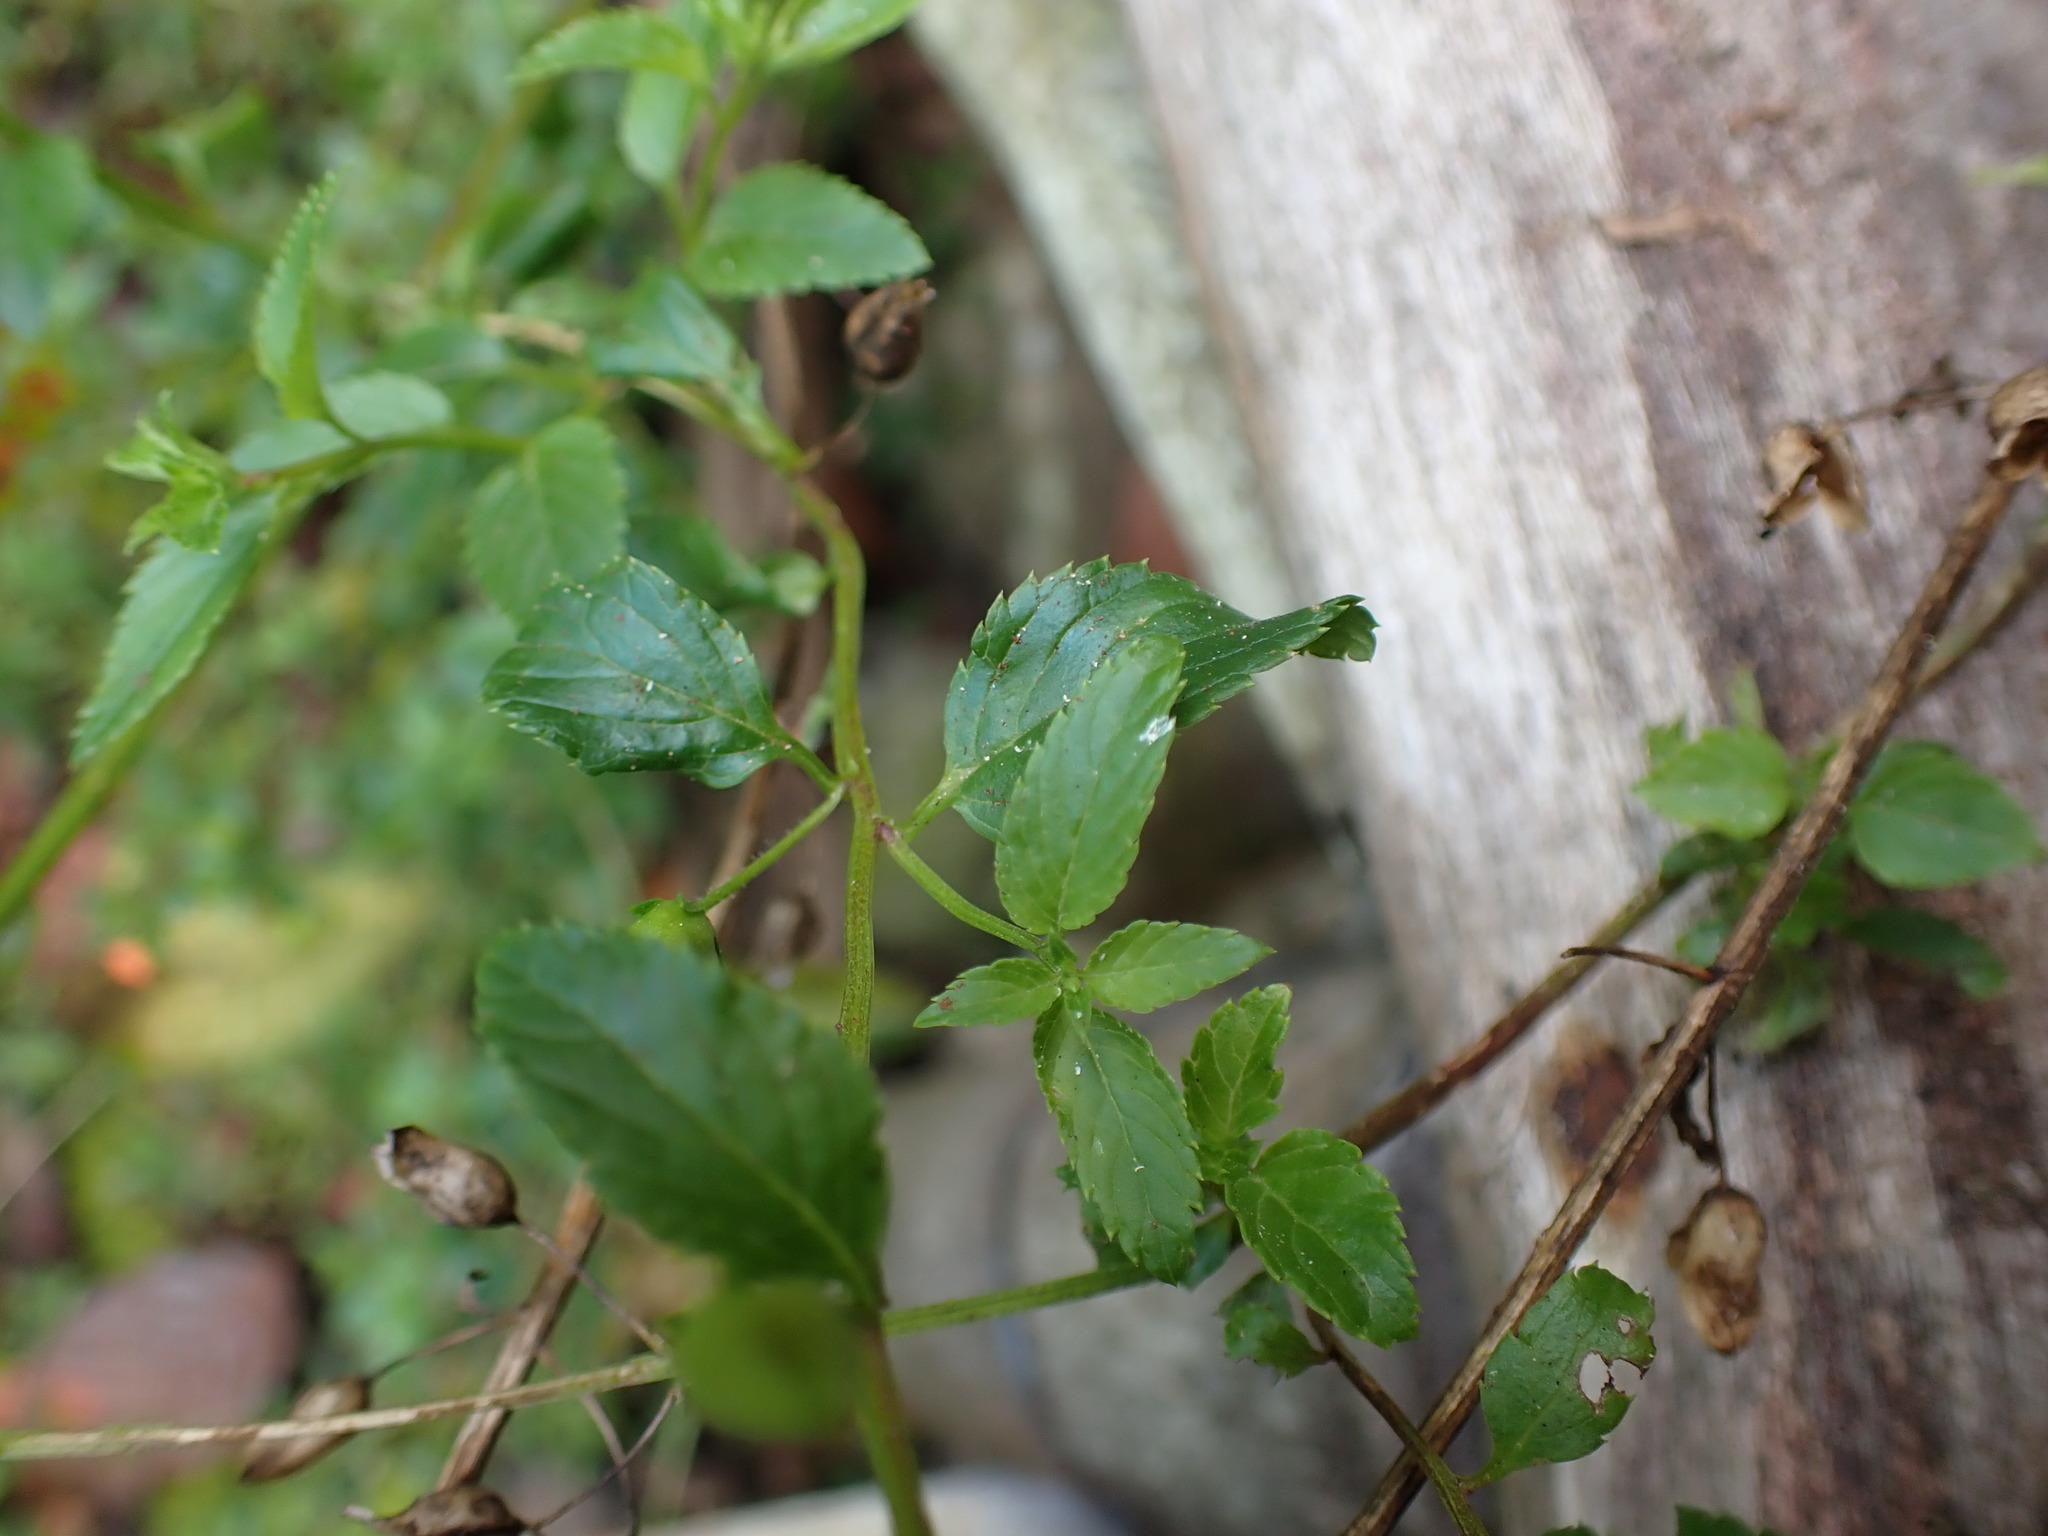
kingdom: Plantae
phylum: Tracheophyta
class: Magnoliopsida
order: Lamiales
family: Scrophulariaceae
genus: Alonsoa
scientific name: Alonsoa acutifolia
